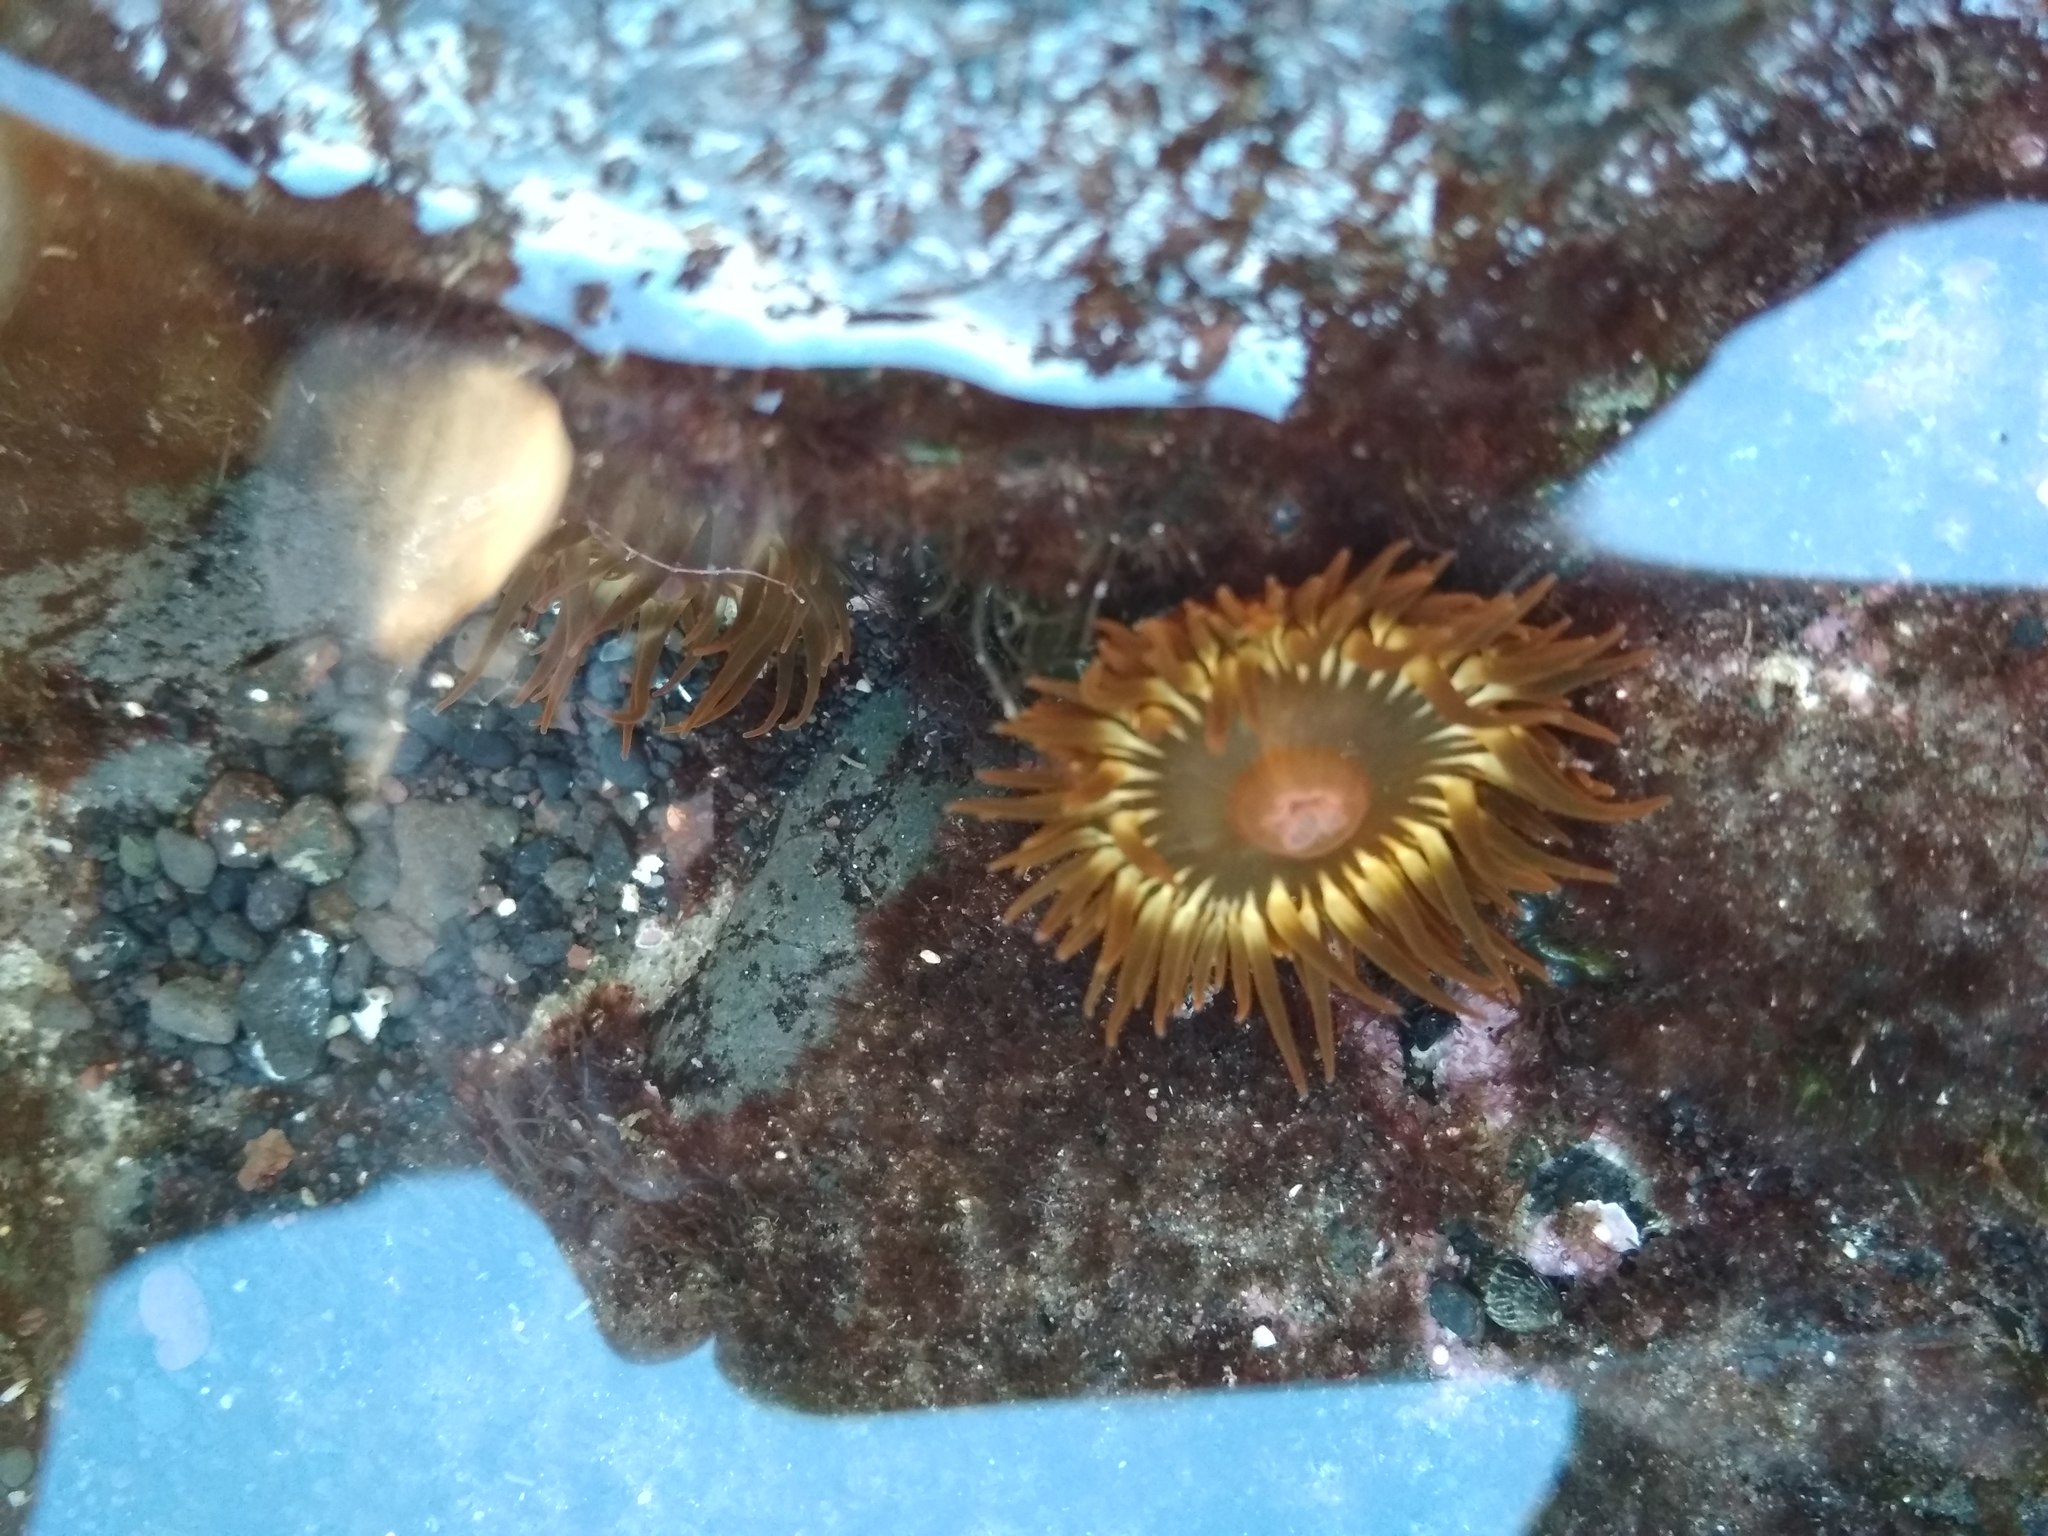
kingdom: Animalia
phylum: Cnidaria
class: Anthozoa
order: Actiniaria
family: Actiniidae
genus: Anemonia
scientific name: Anemonia sargassensis
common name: Sargassum anemone
